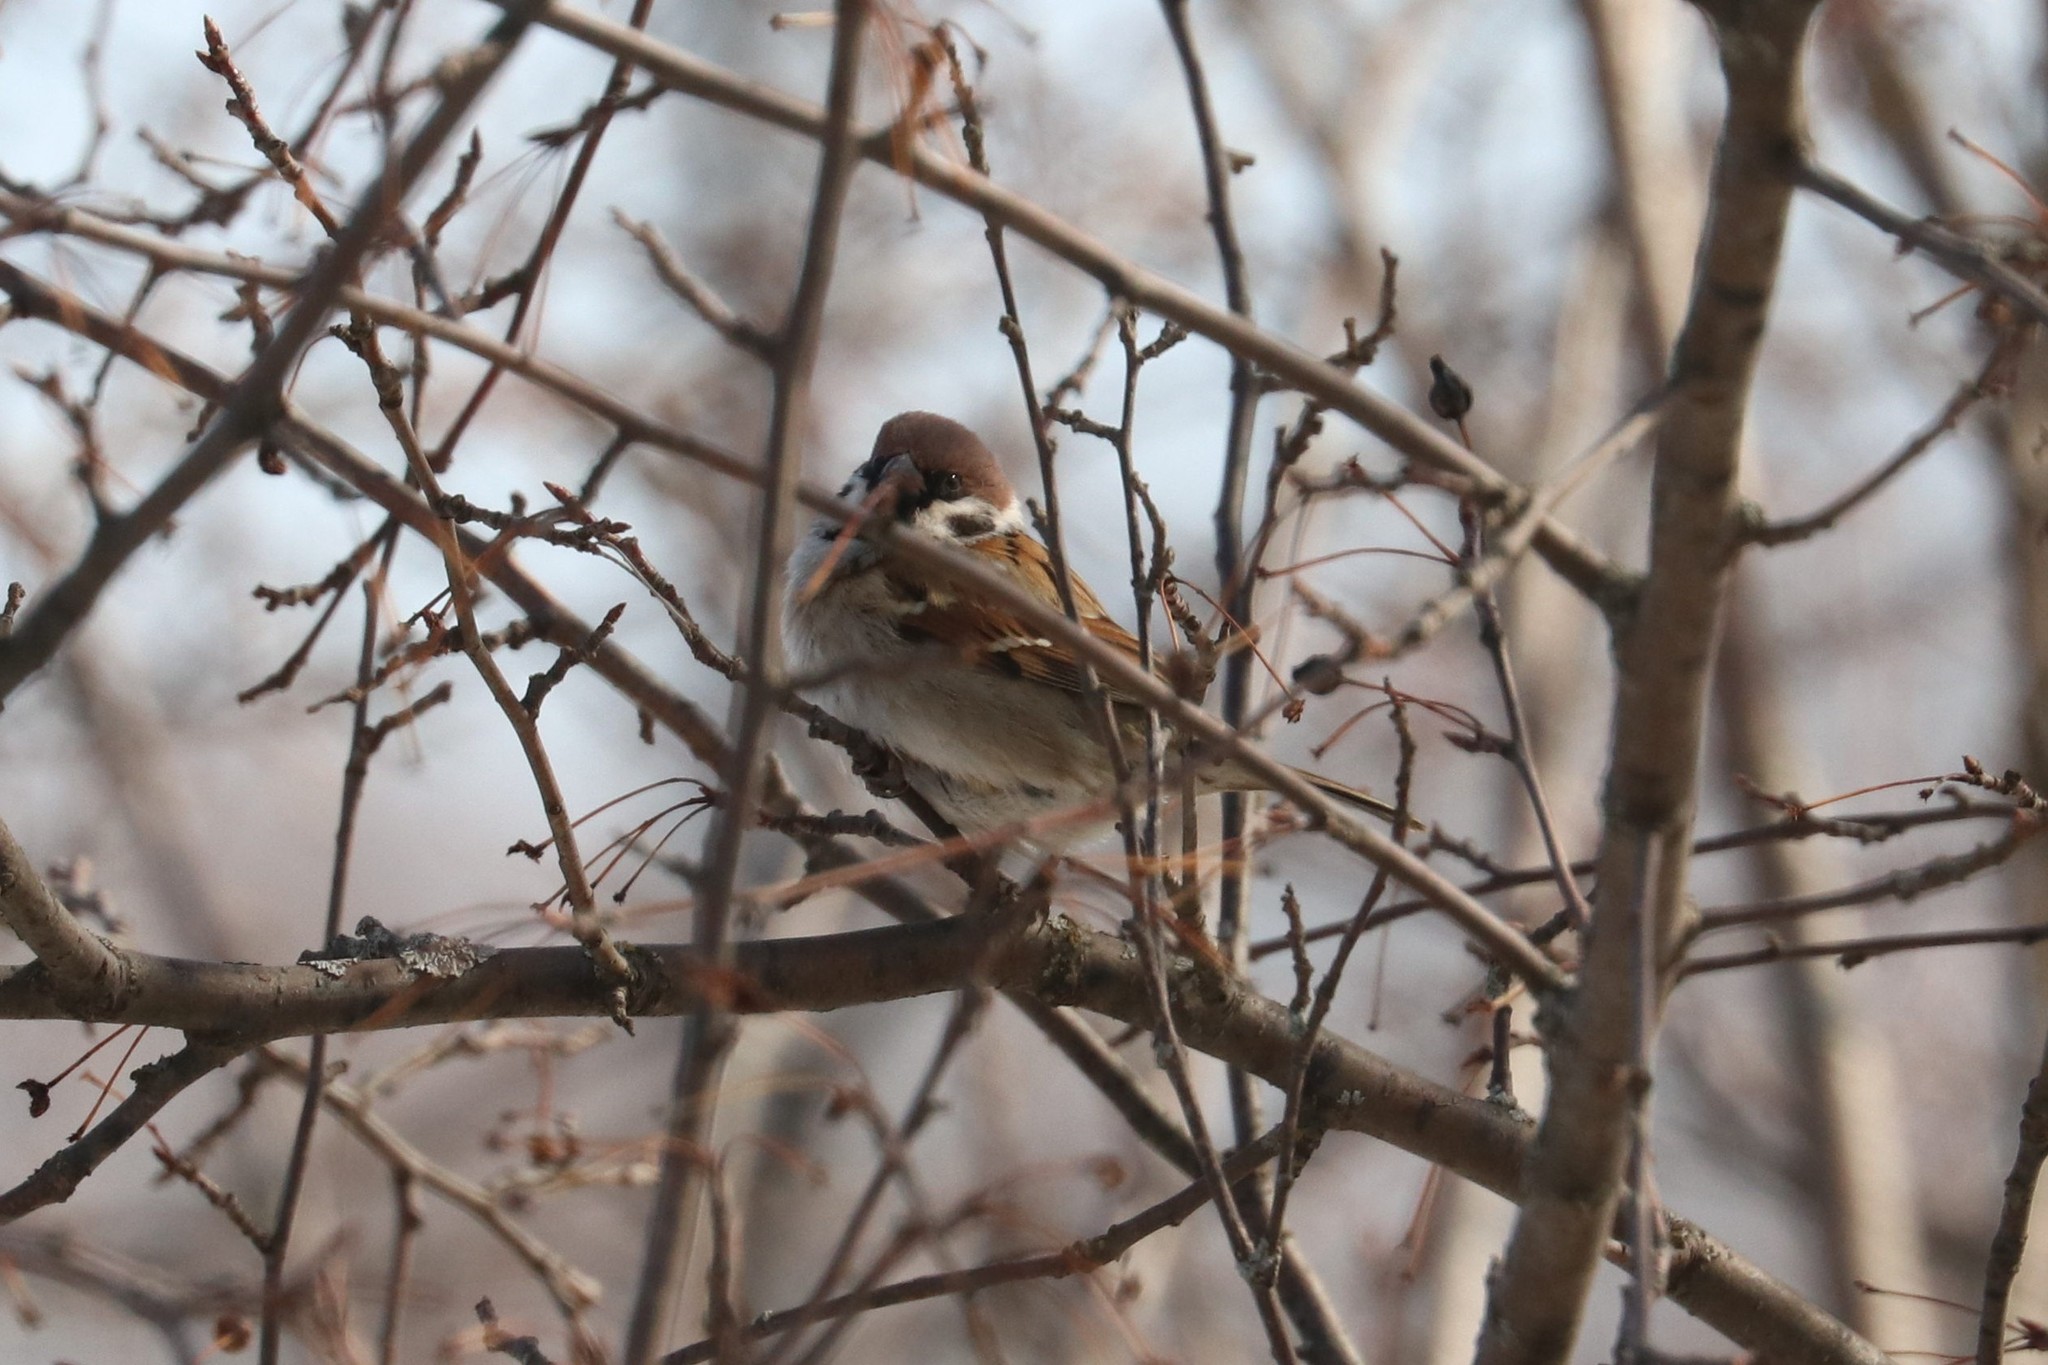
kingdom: Animalia
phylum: Chordata
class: Aves
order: Passeriformes
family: Passeridae
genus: Passer
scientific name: Passer montanus
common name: Eurasian tree sparrow
